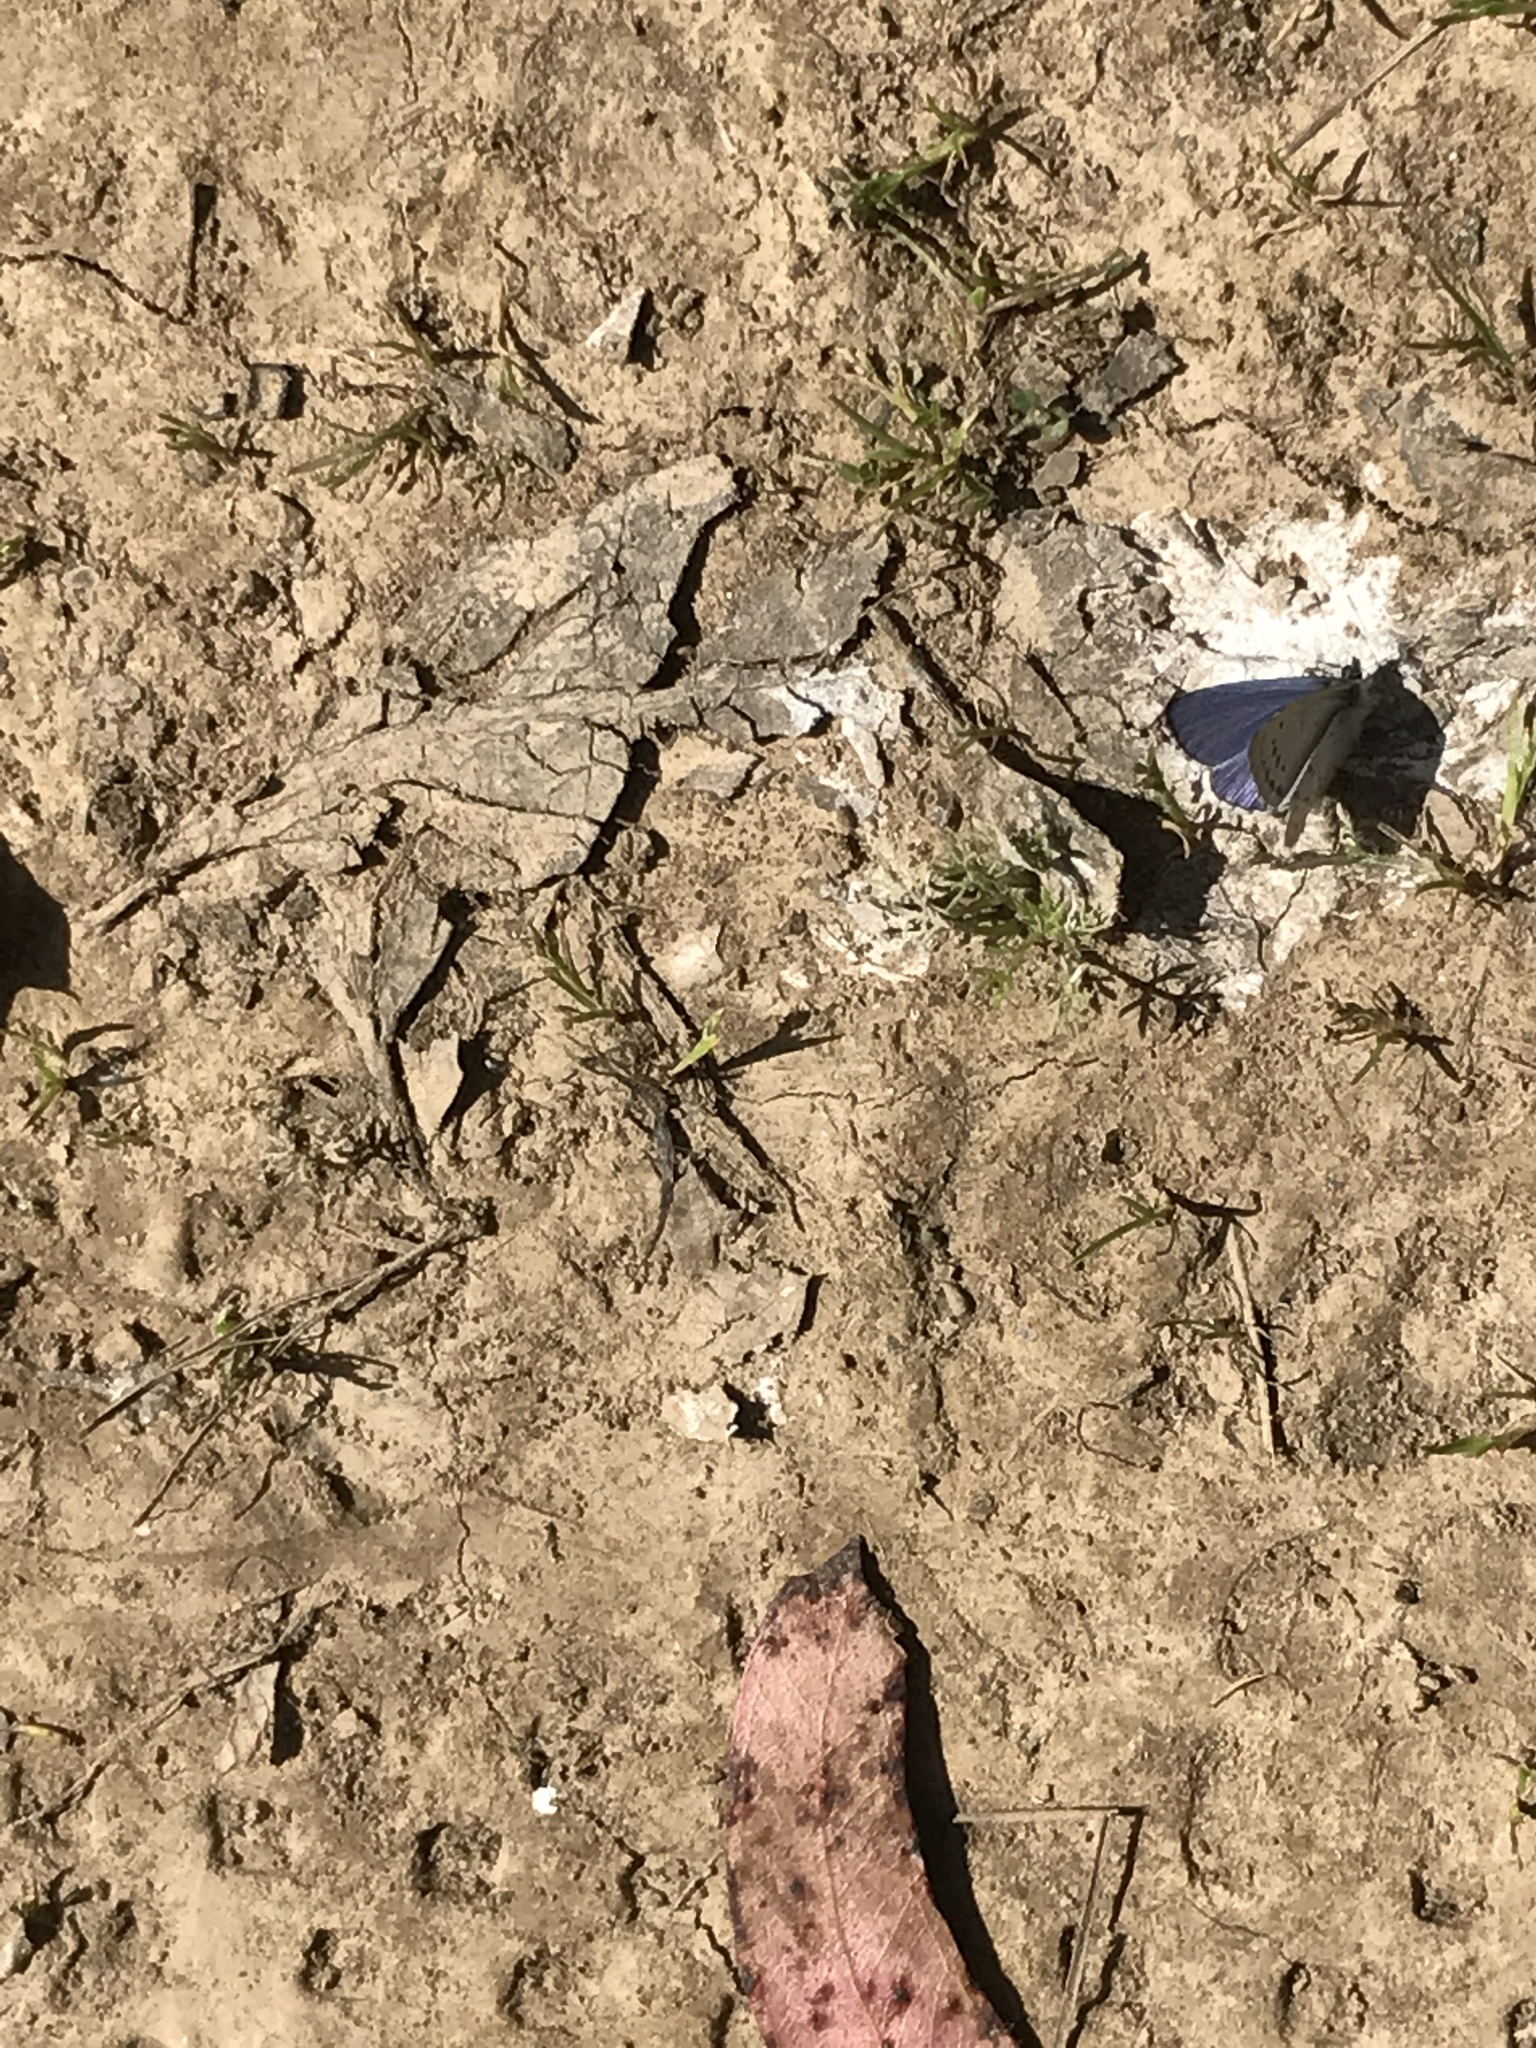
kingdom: Animalia
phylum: Arthropoda
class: Insecta
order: Lepidoptera
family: Lycaenidae
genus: Icaricia
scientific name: Icaricia icarioides
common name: Boisduval's blue
